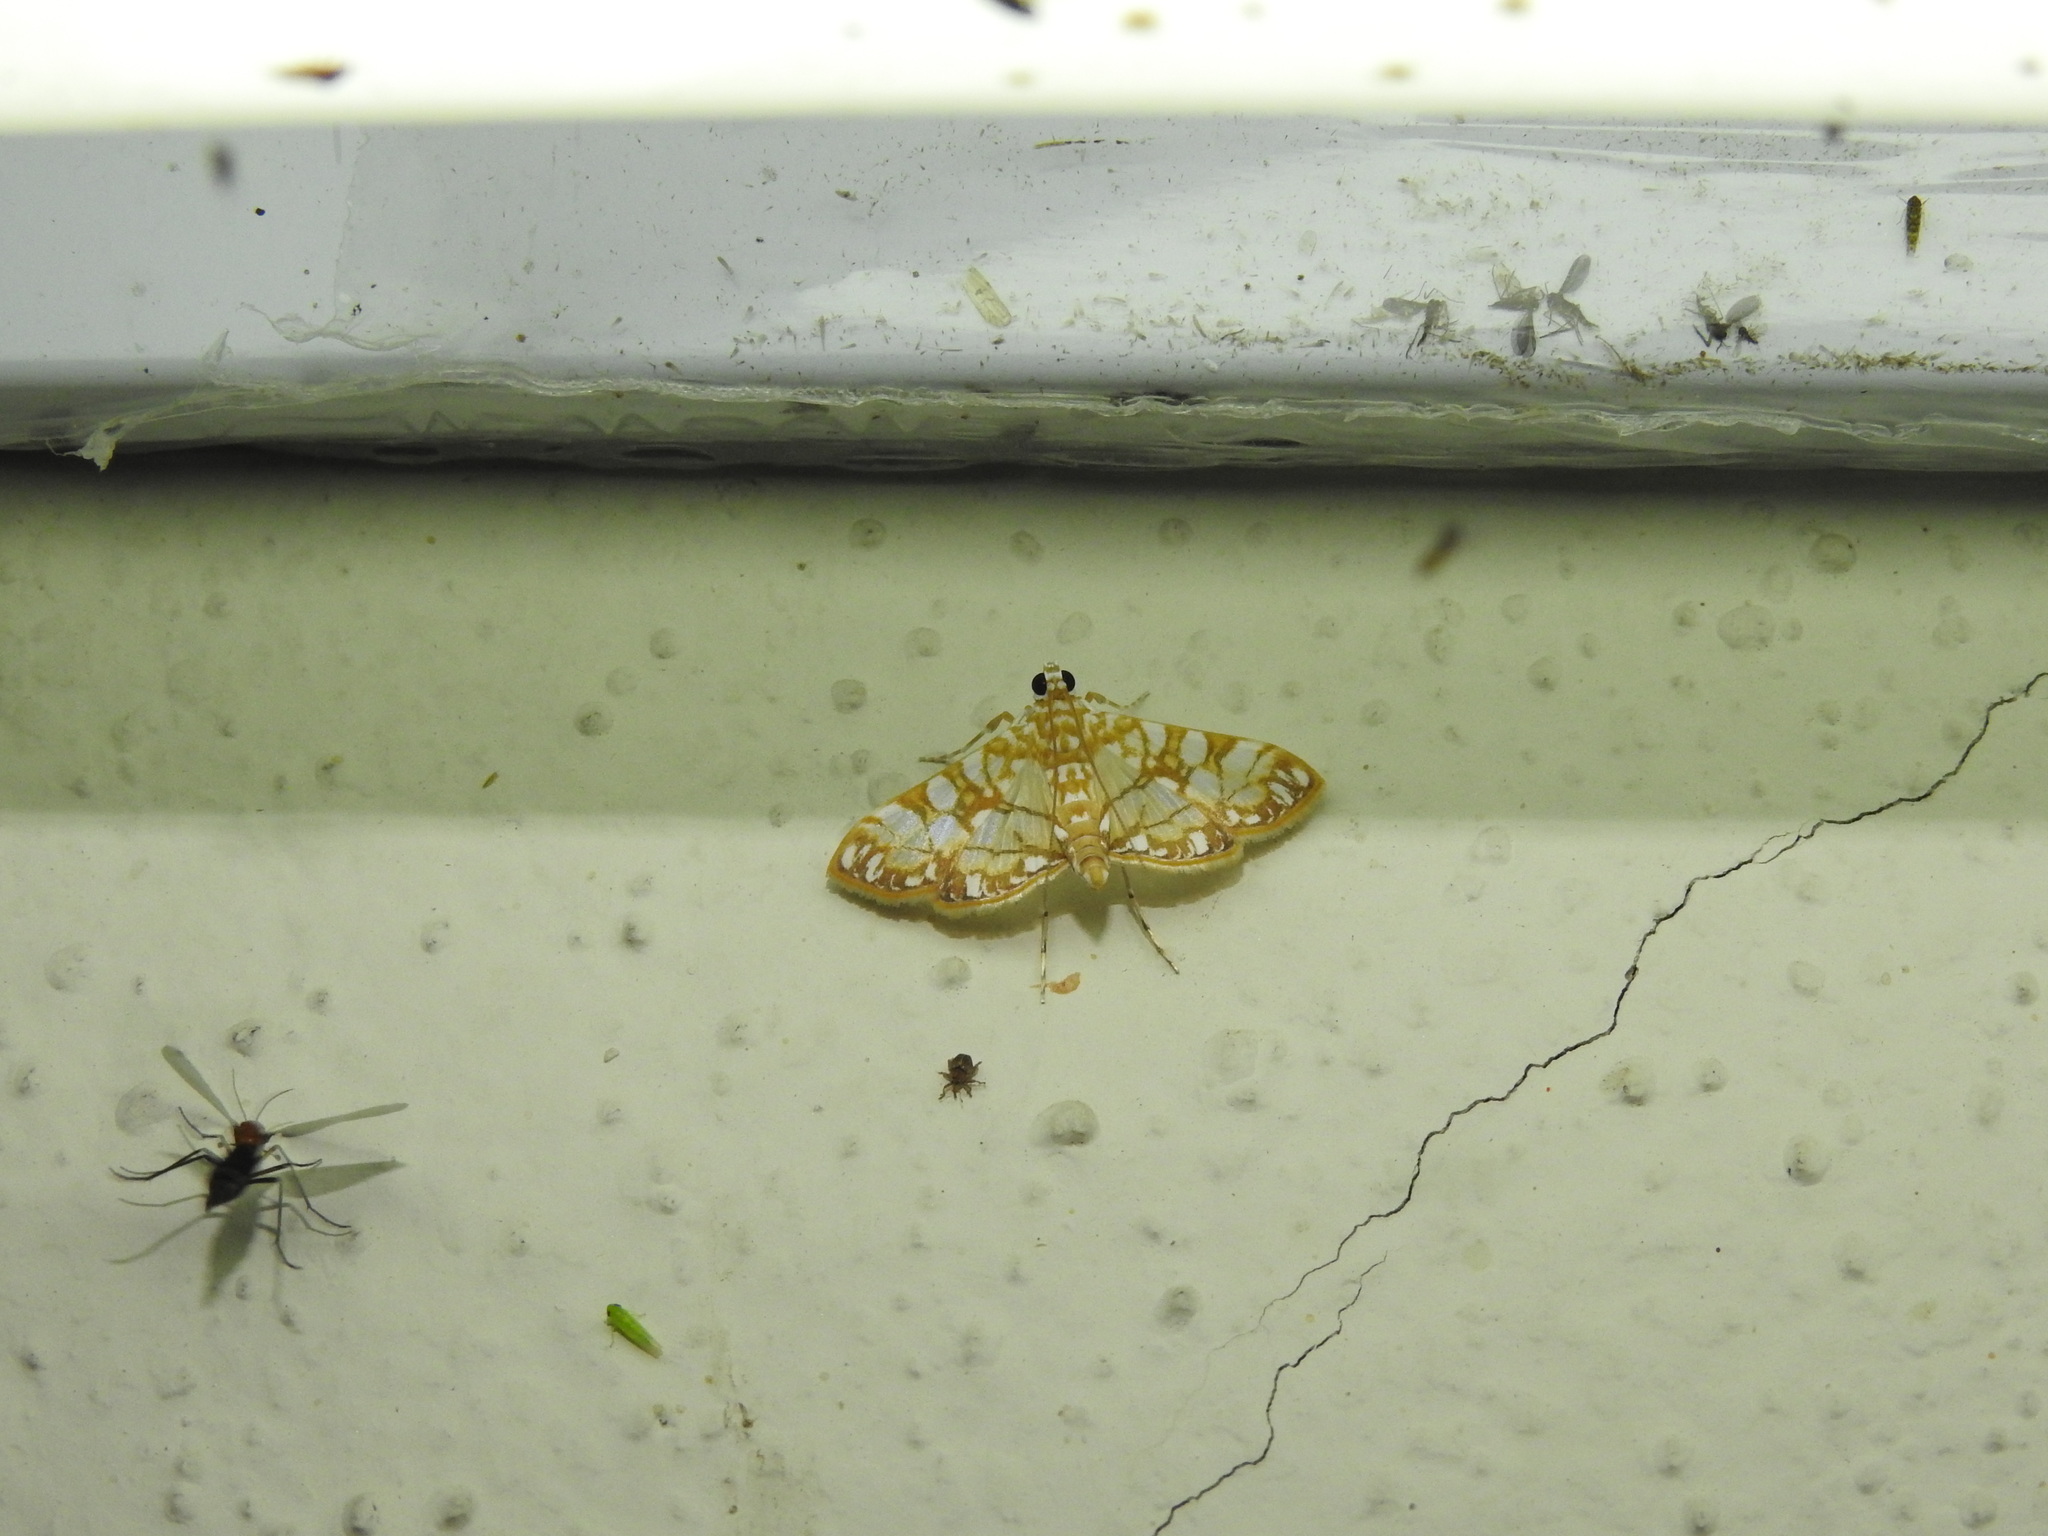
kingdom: Animalia
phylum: Arthropoda
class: Insecta
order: Lepidoptera
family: Crambidae
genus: Synclera
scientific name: Synclera traducalis
